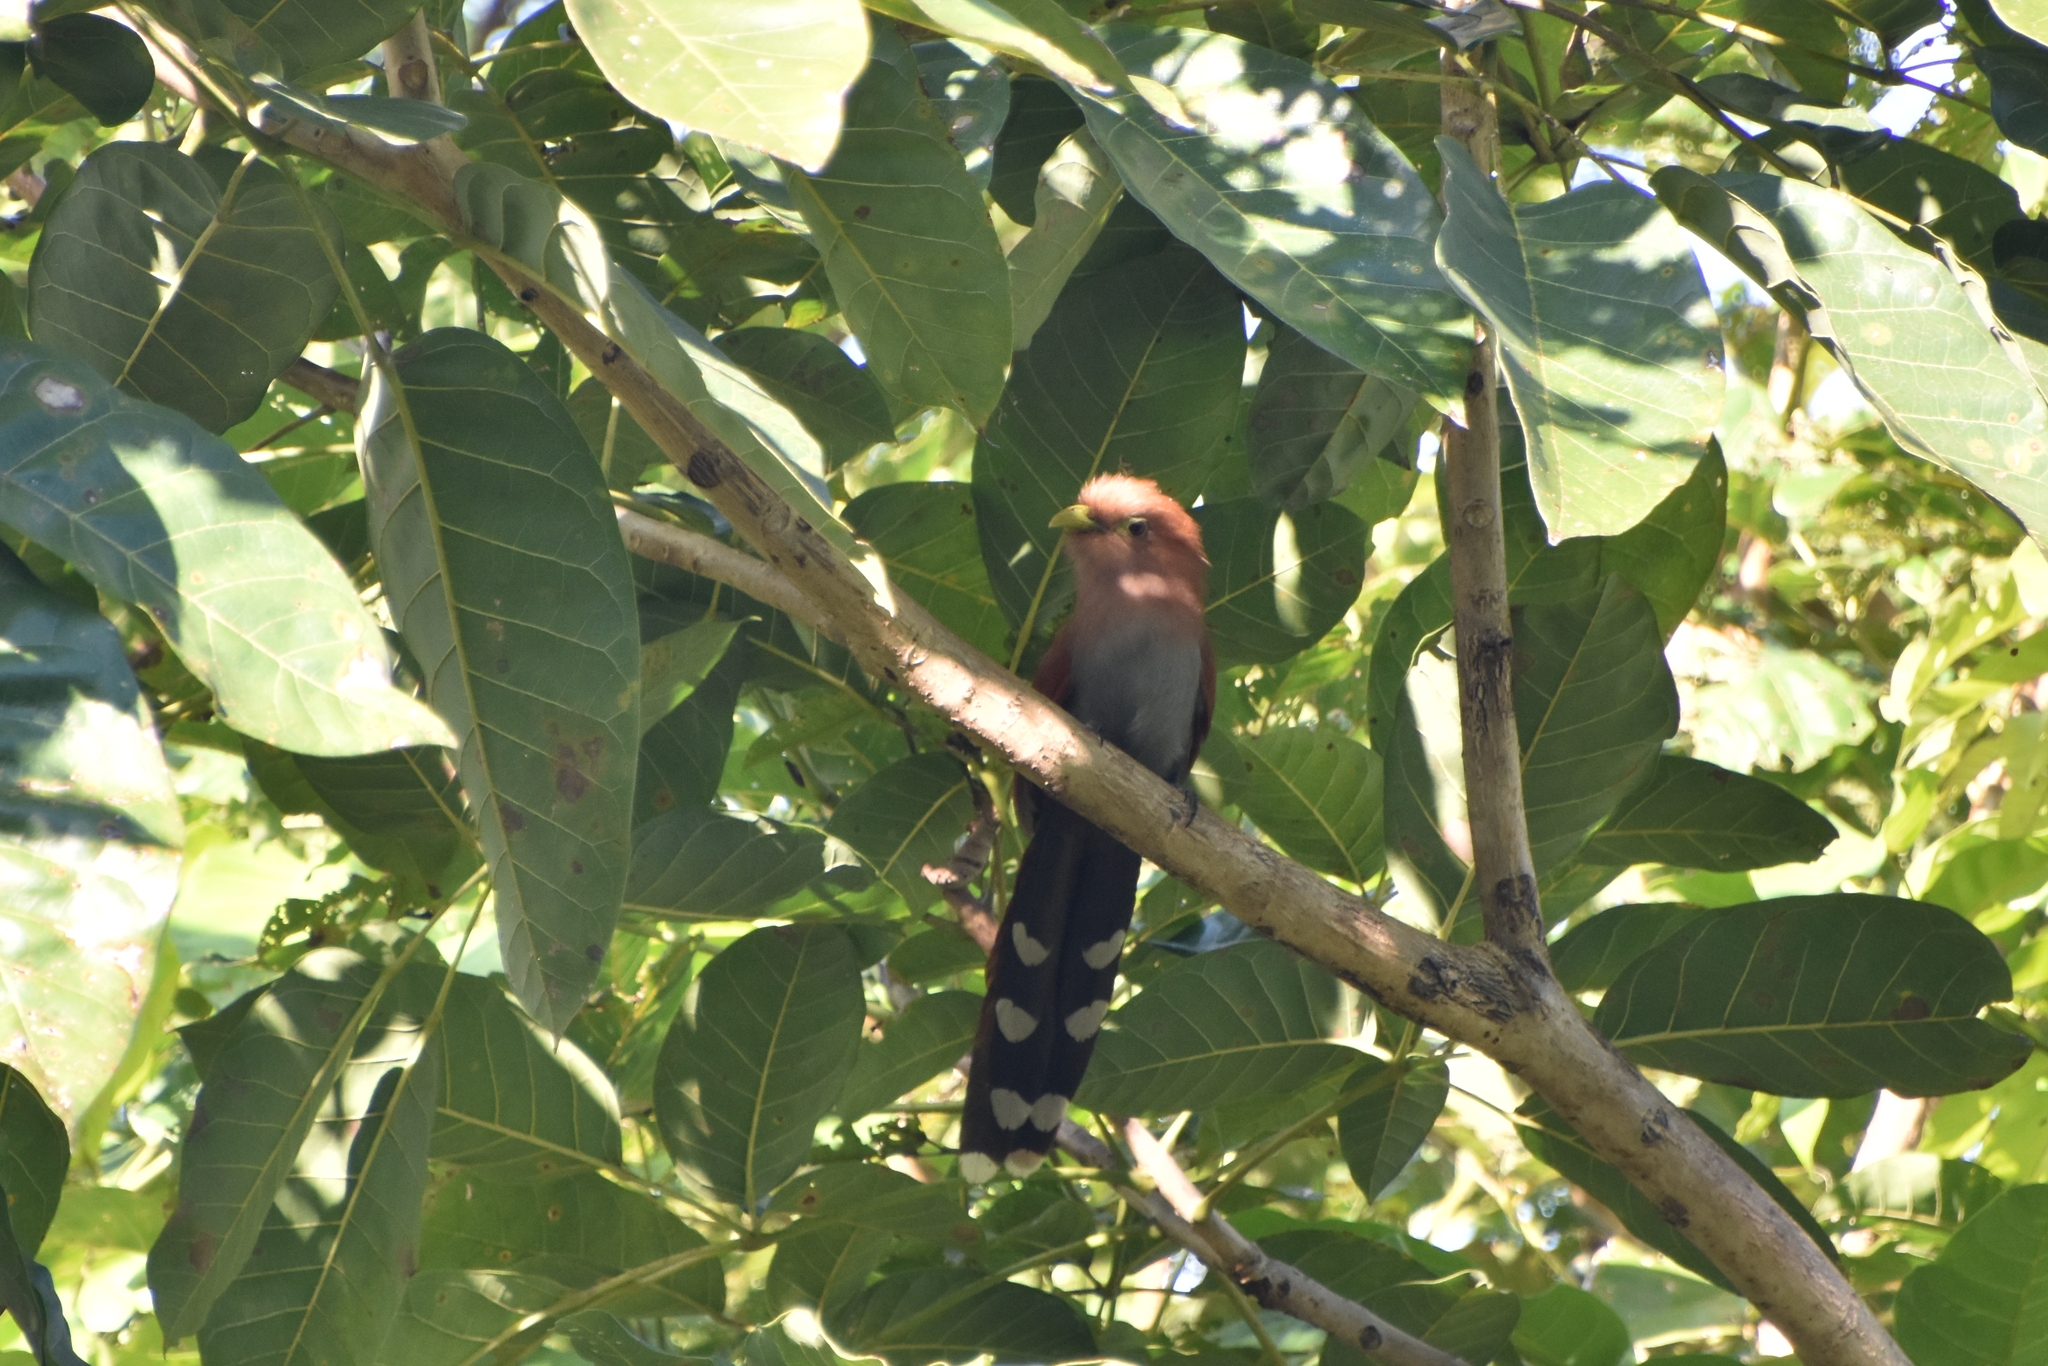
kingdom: Animalia
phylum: Chordata
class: Aves
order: Cuculiformes
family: Cuculidae
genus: Piaya
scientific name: Piaya cayana
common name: Squirrel cuckoo
